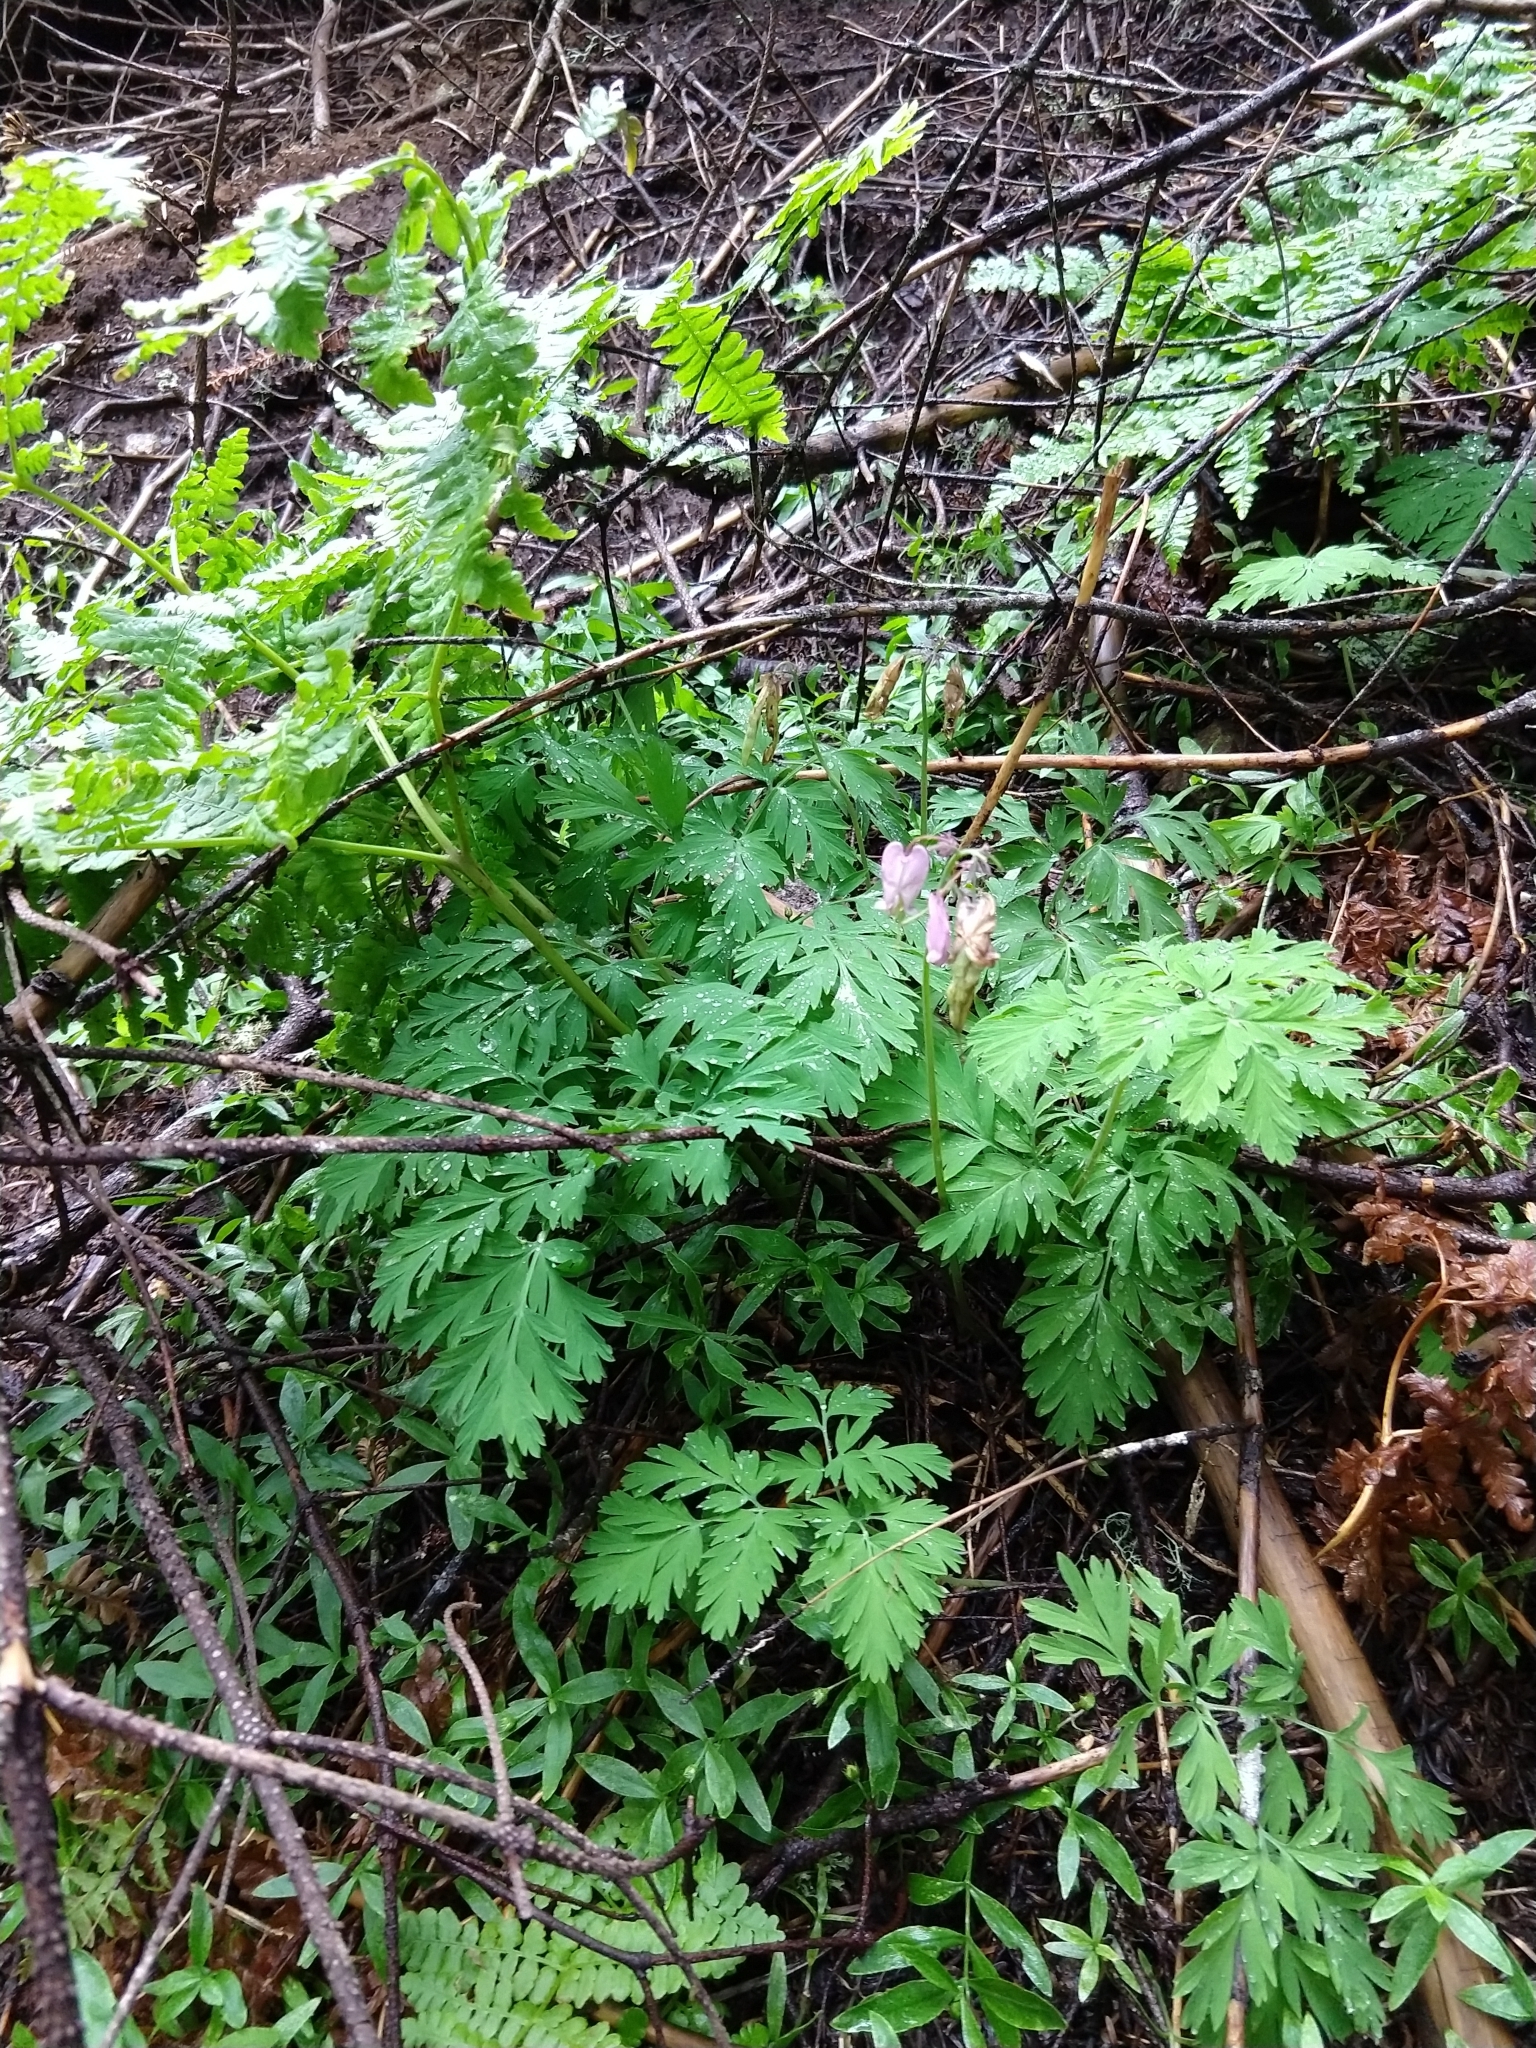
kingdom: Plantae
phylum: Tracheophyta
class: Magnoliopsida
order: Ranunculales
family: Papaveraceae
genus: Dicentra
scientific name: Dicentra formosa
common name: Bleeding-heart
